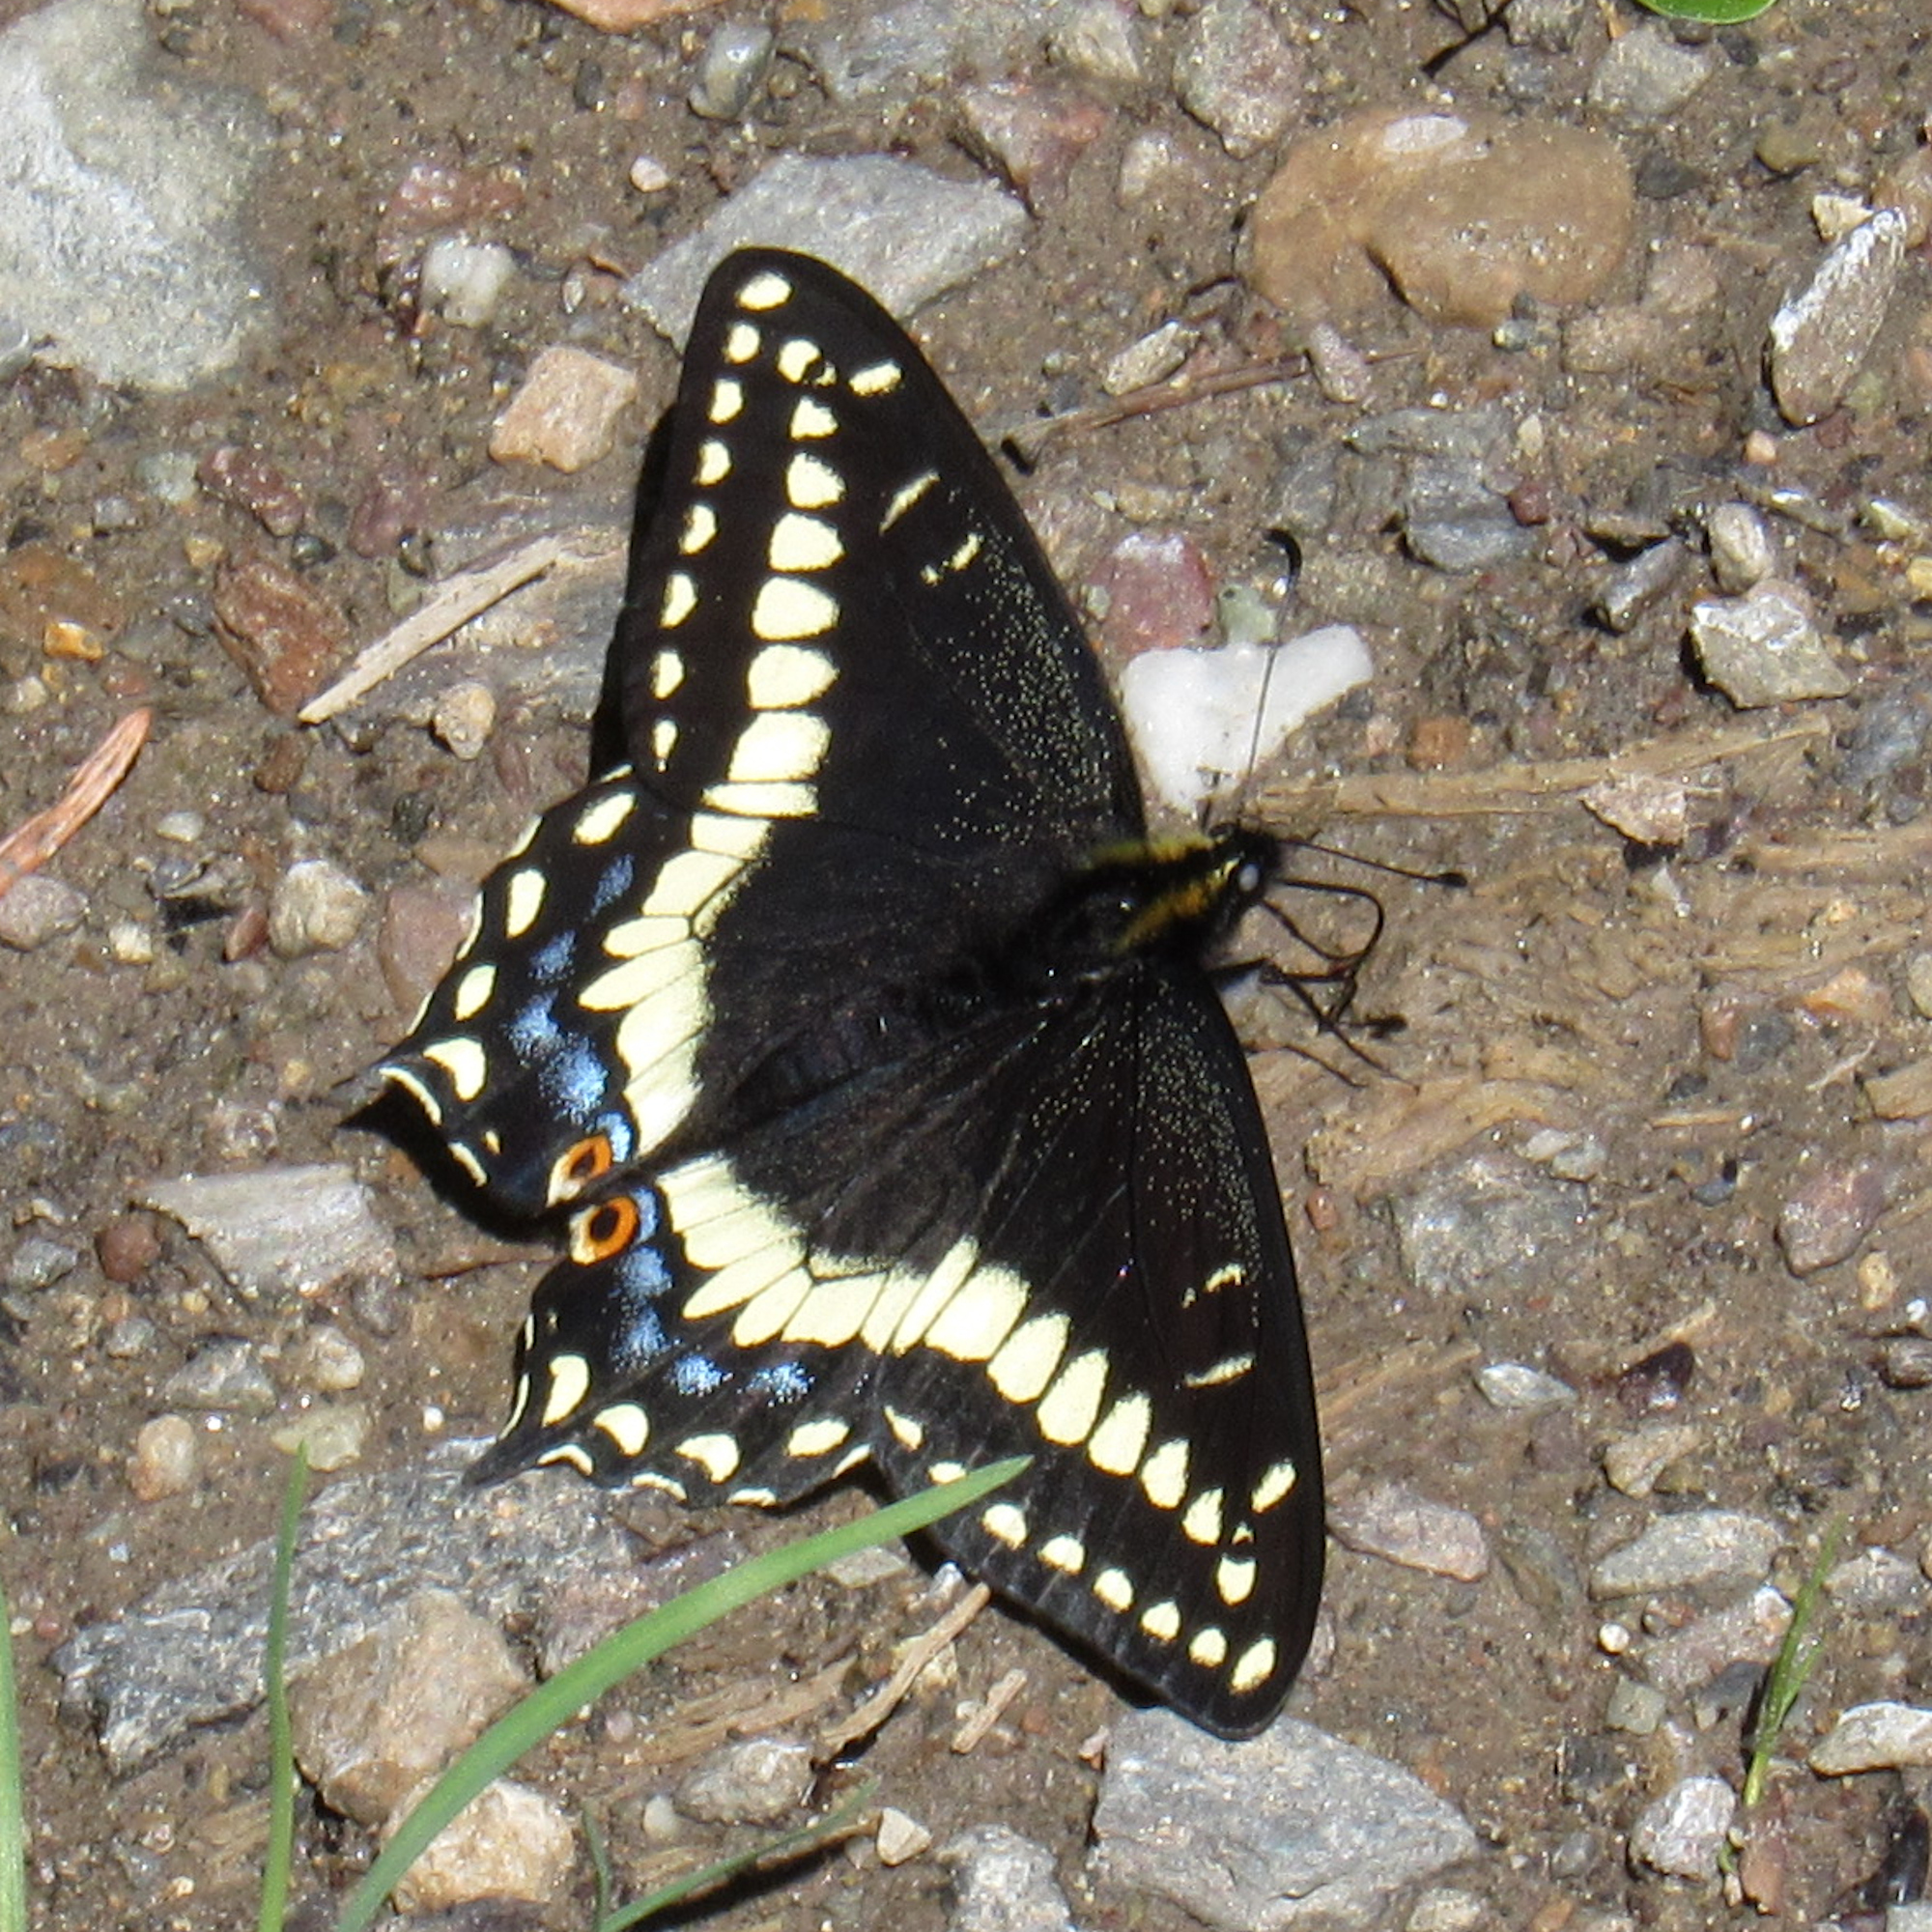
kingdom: Animalia
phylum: Arthropoda
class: Insecta
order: Lepidoptera
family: Papilionidae
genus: Papilio
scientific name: Papilio indra
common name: Cliff swallowtail
